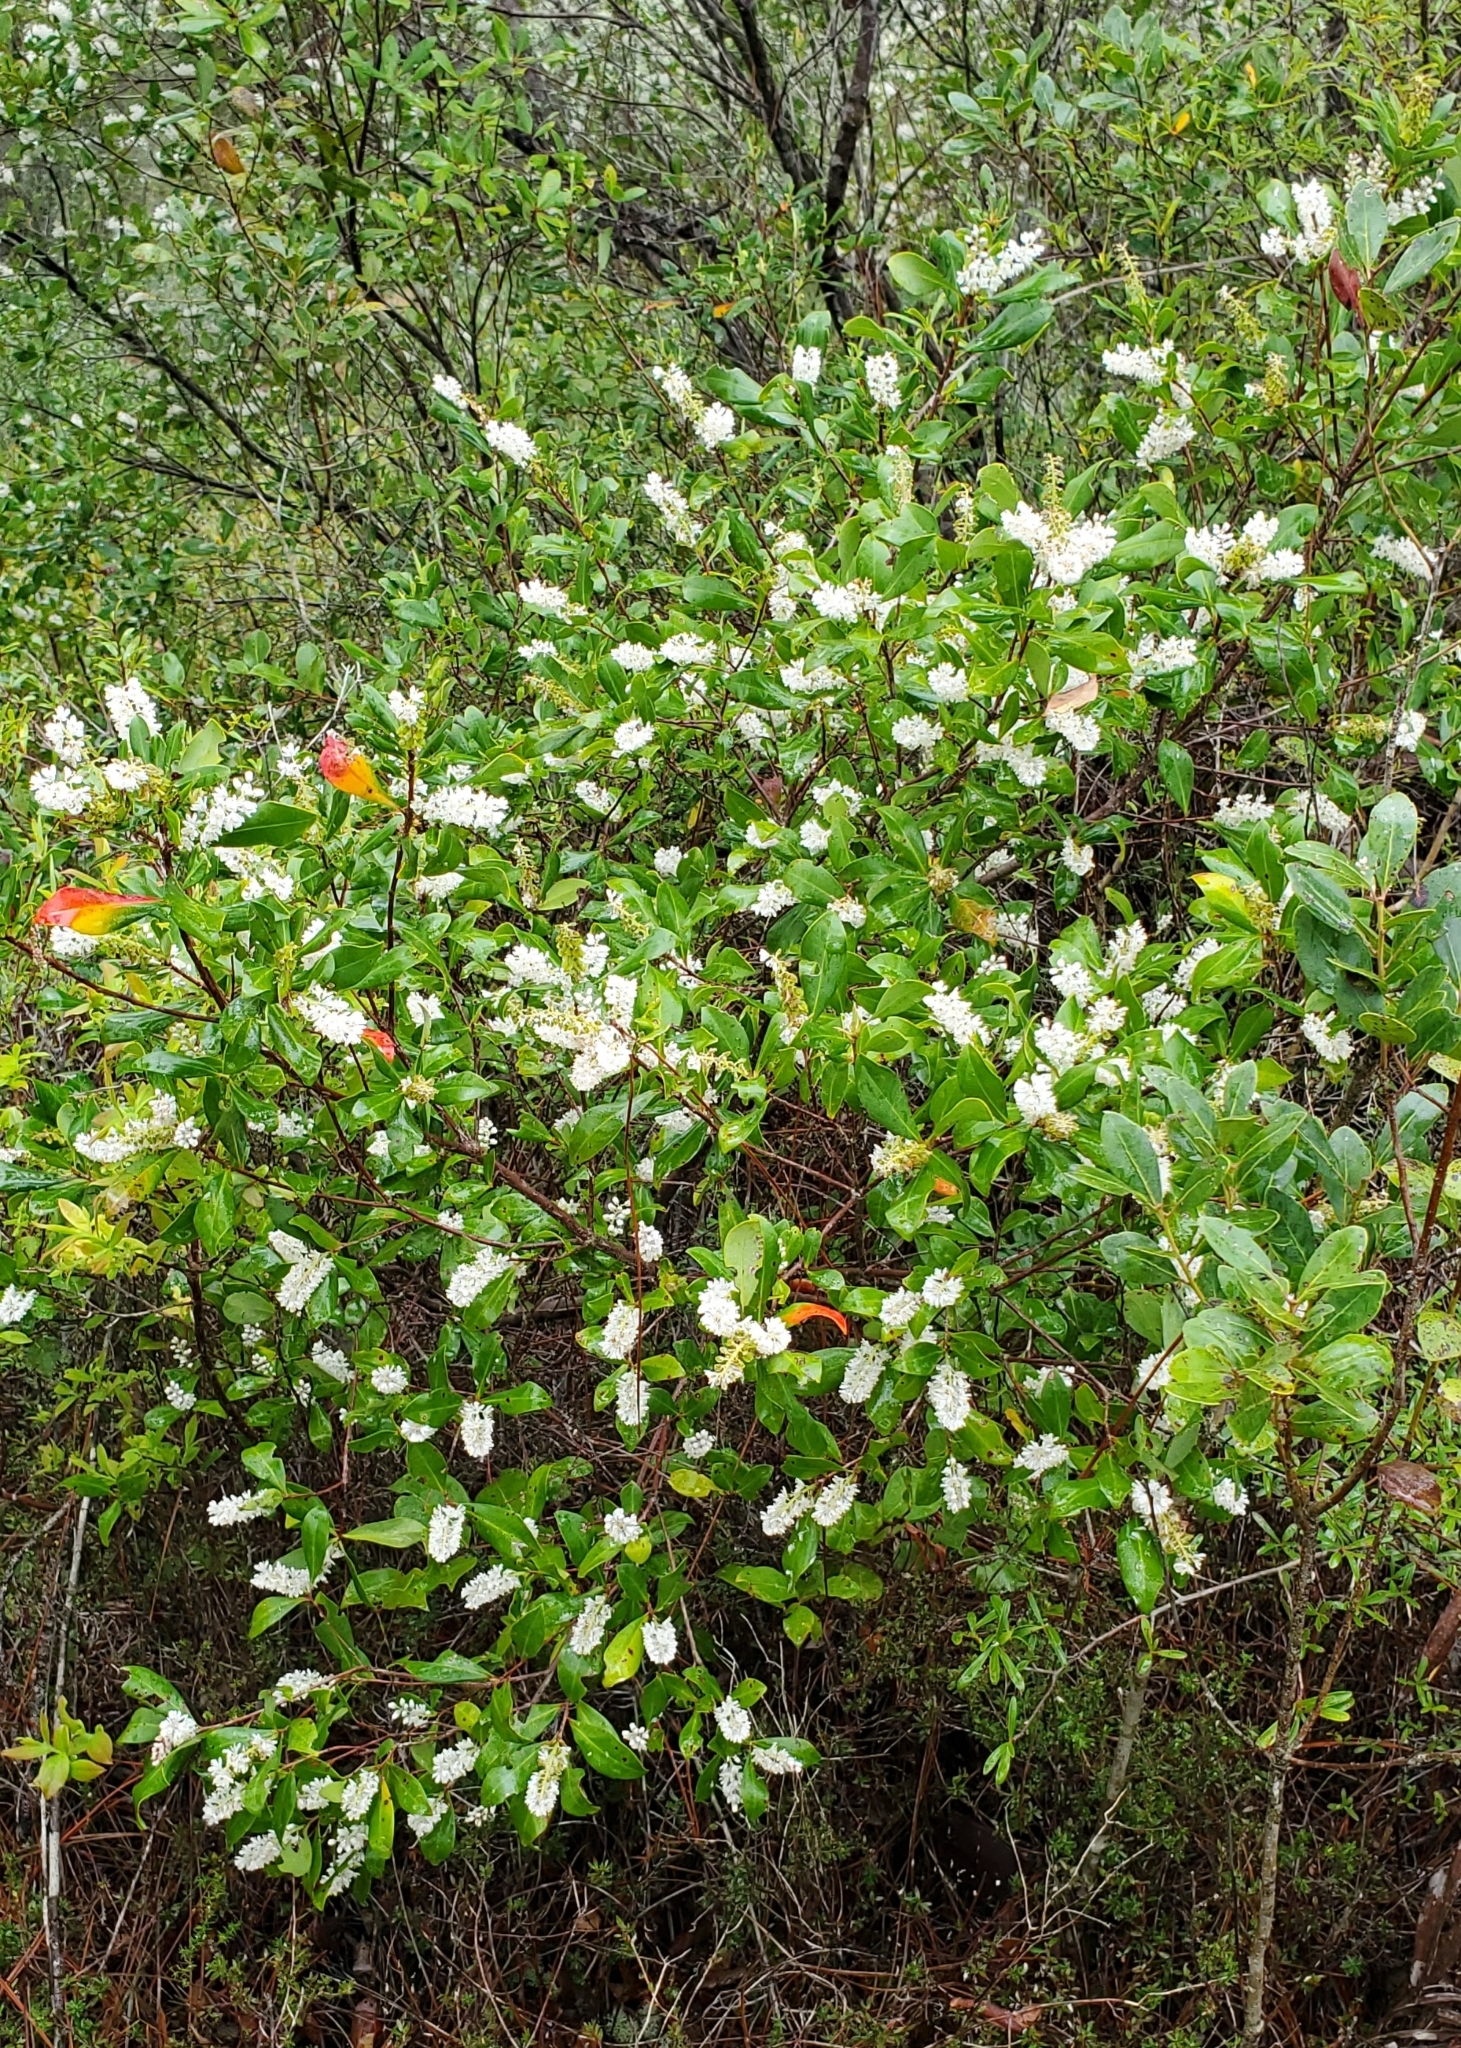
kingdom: Plantae
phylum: Tracheophyta
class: Magnoliopsida
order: Ericales
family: Cyrillaceae
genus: Cliftonia
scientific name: Cliftonia monophylla
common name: Titi
